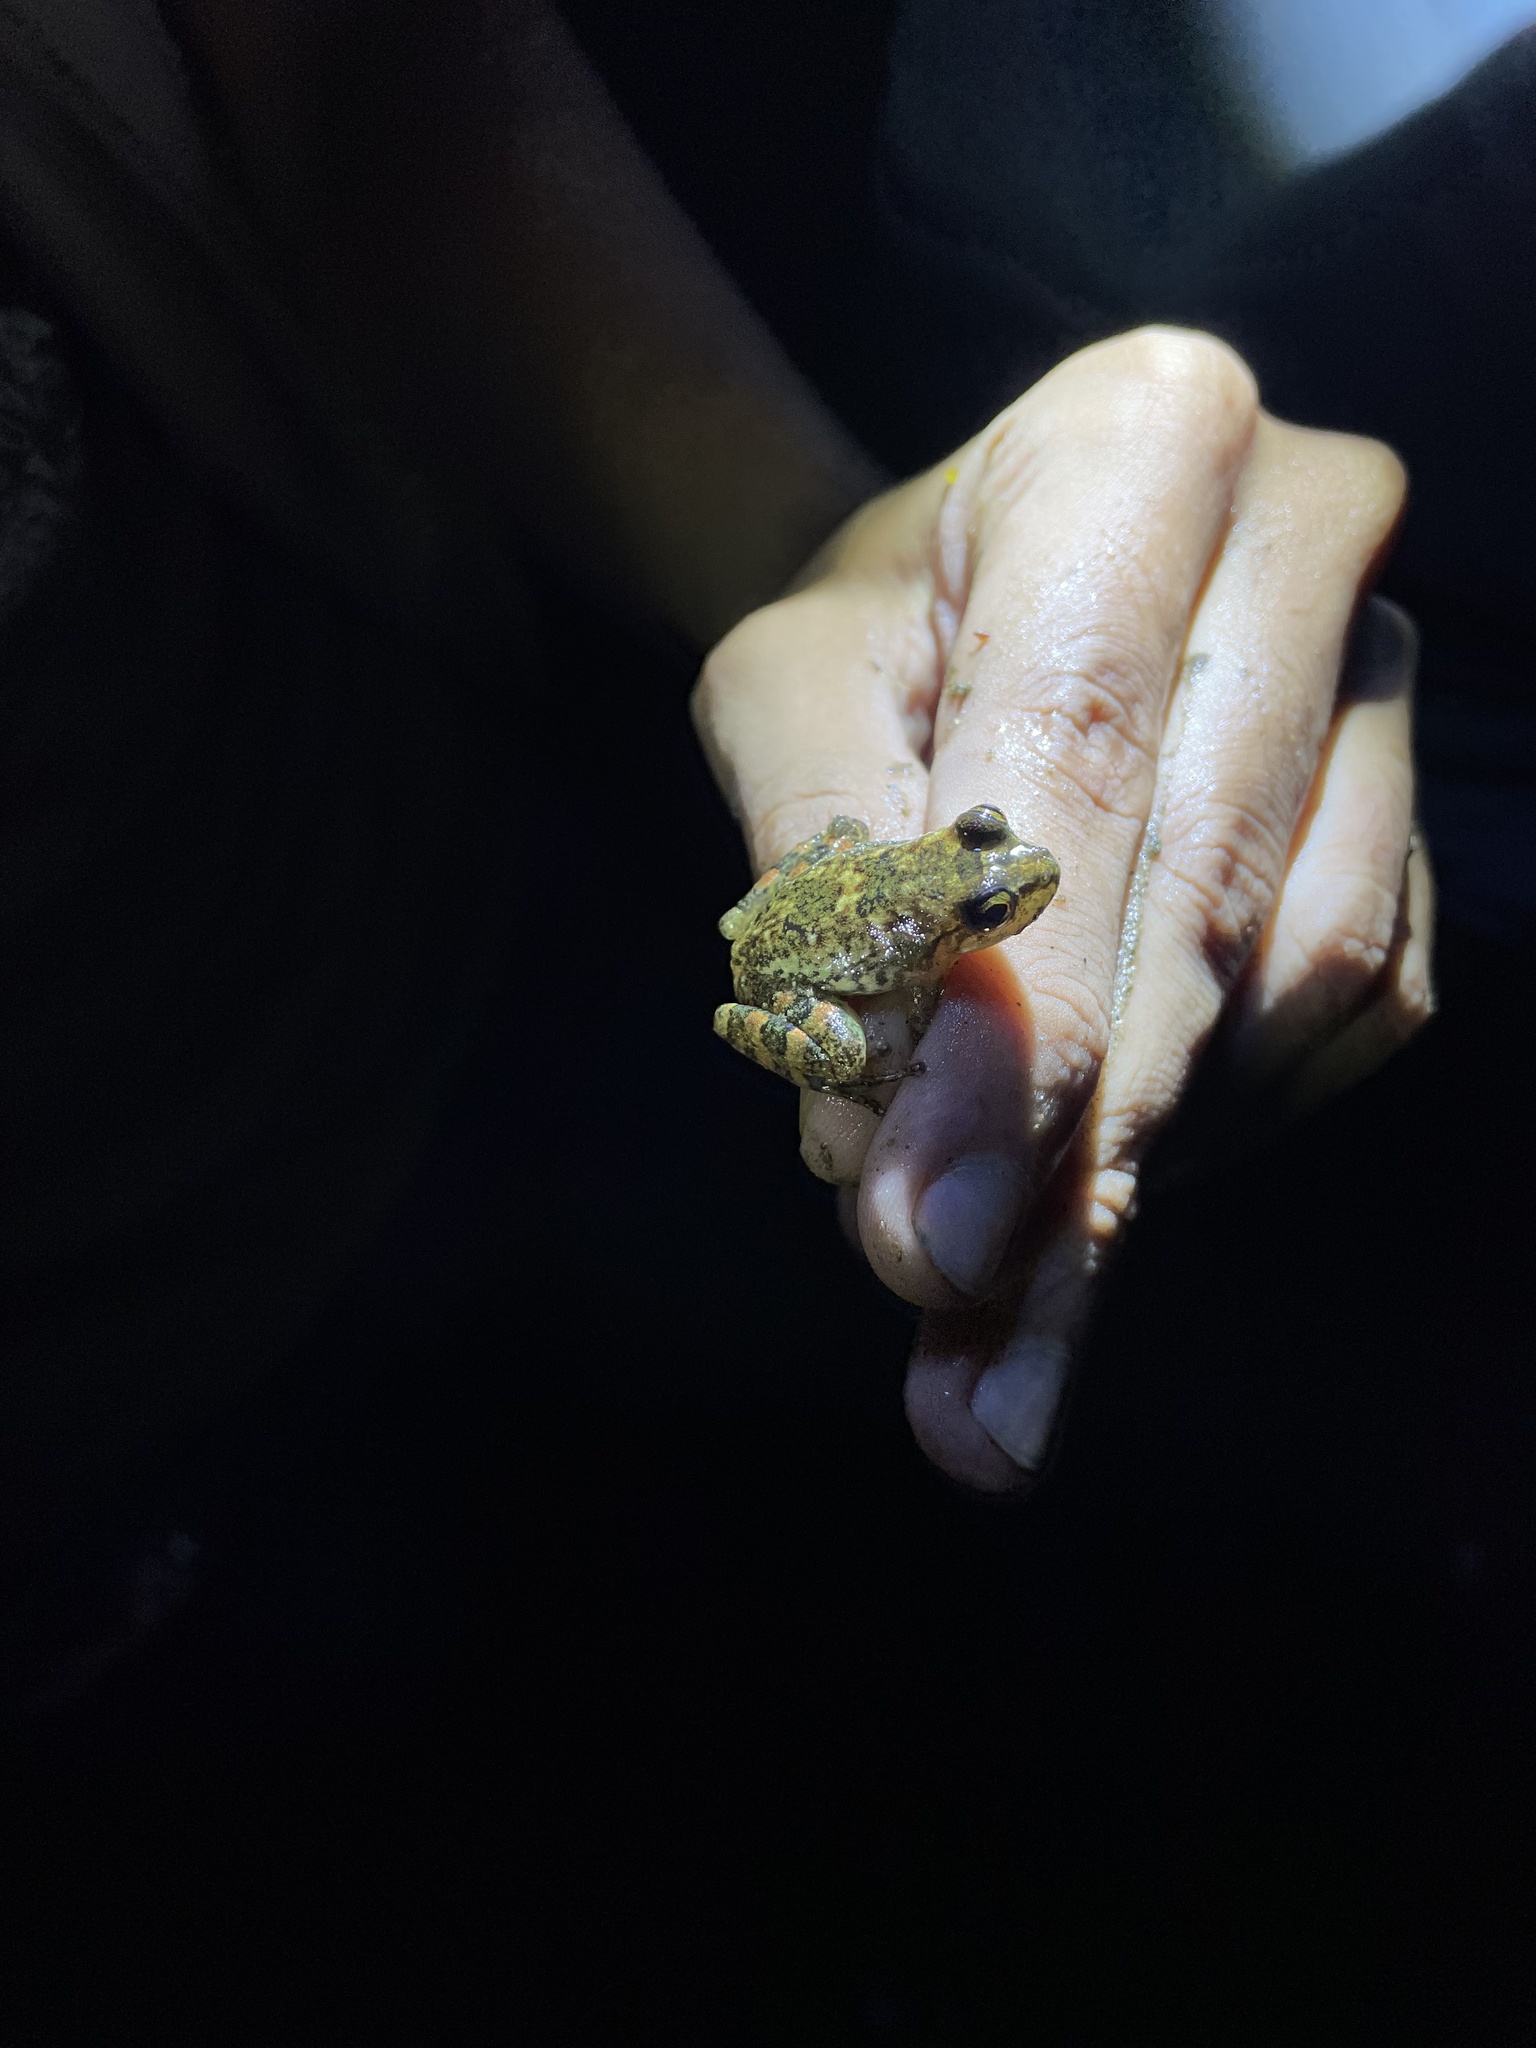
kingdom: Animalia
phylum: Chordata
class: Amphibia
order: Anura
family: Hemiphractidae
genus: Cryptobatrachus
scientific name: Cryptobatrachus boulengeri
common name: Boulenger's backpack frog
